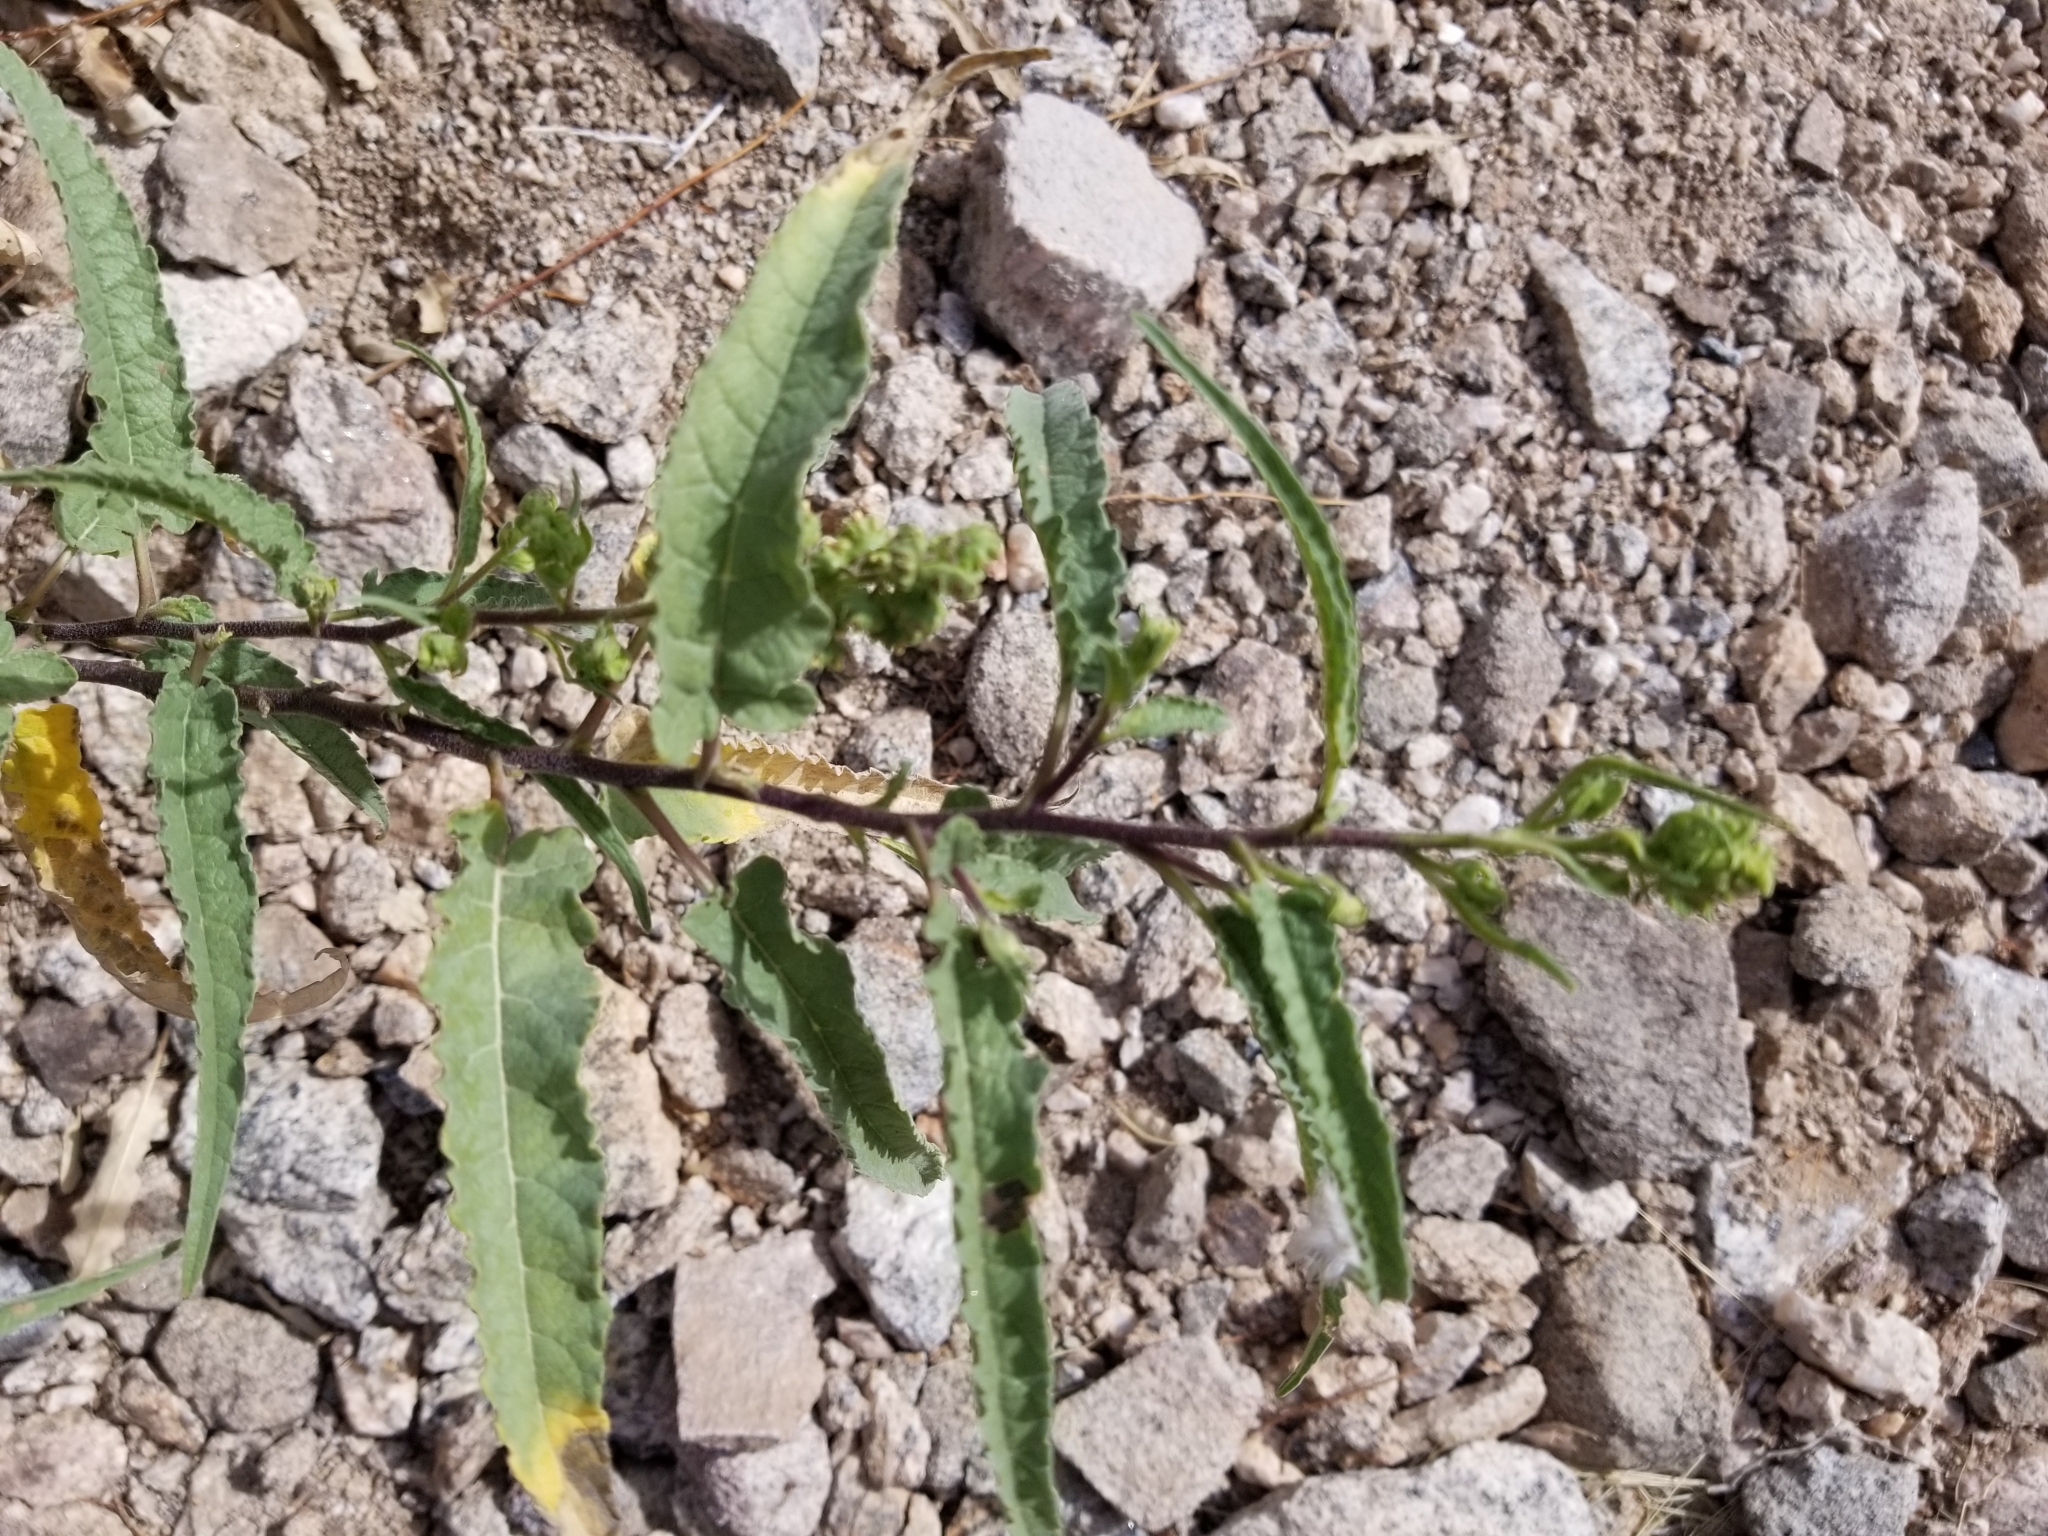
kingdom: Plantae
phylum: Tracheophyta
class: Magnoliopsida
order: Asterales
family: Asteraceae
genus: Ambrosia
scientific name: Ambrosia ambrosioides
